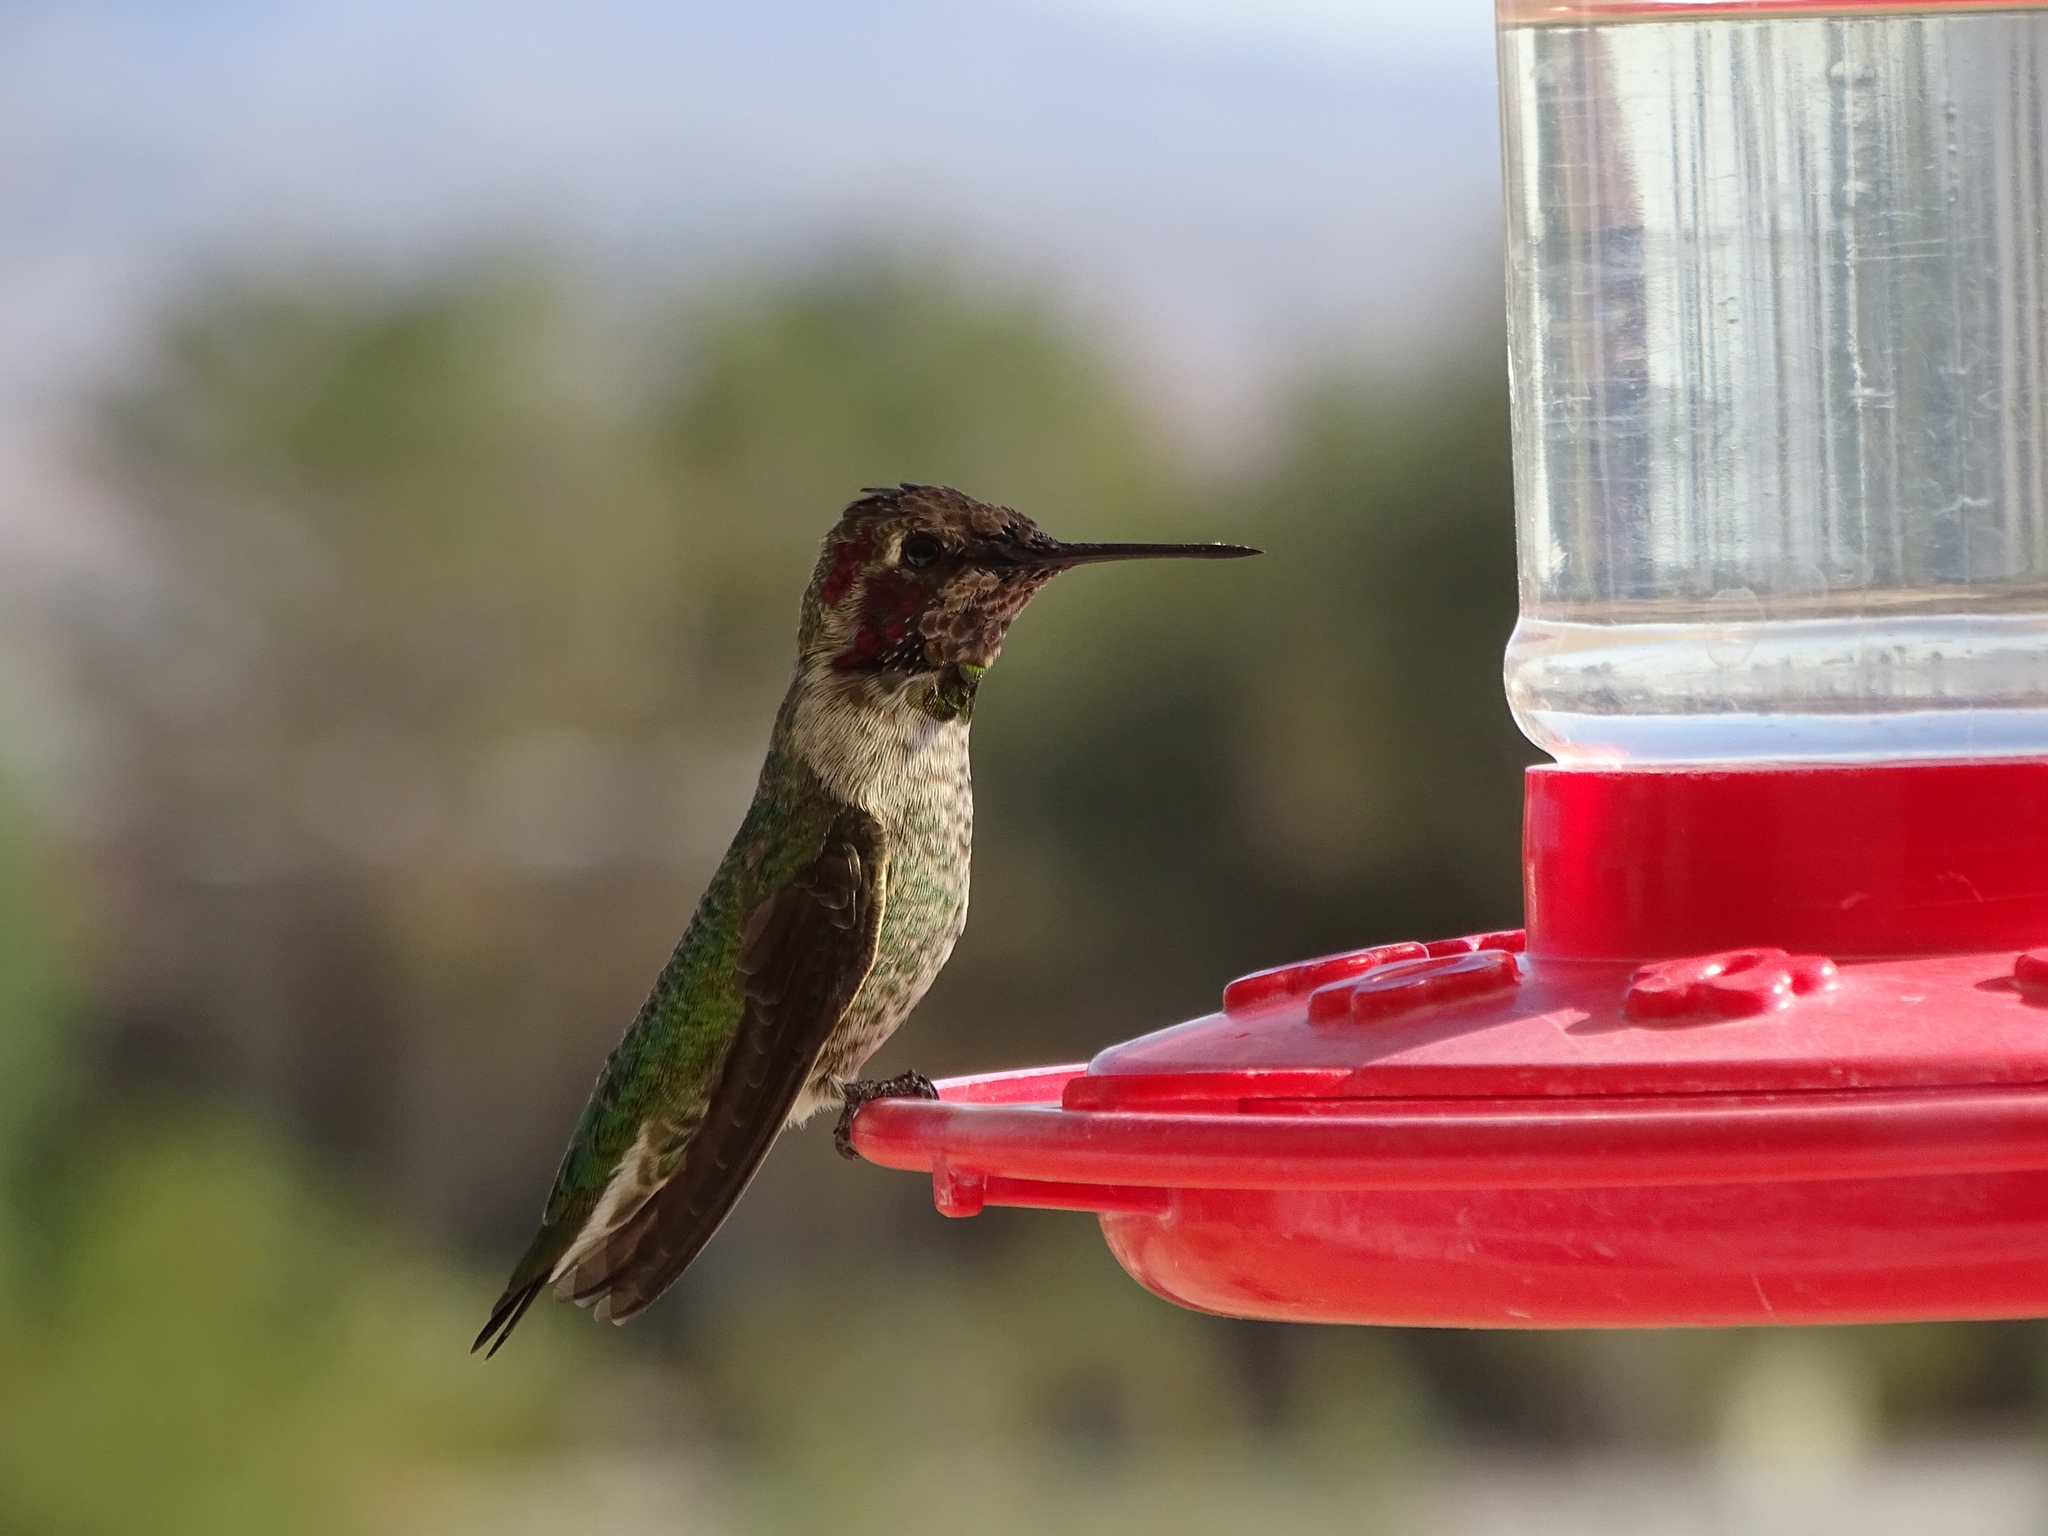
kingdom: Animalia
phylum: Chordata
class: Aves
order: Apodiformes
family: Trochilidae
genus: Calypte
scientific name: Calypte anna
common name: Anna's hummingbird
